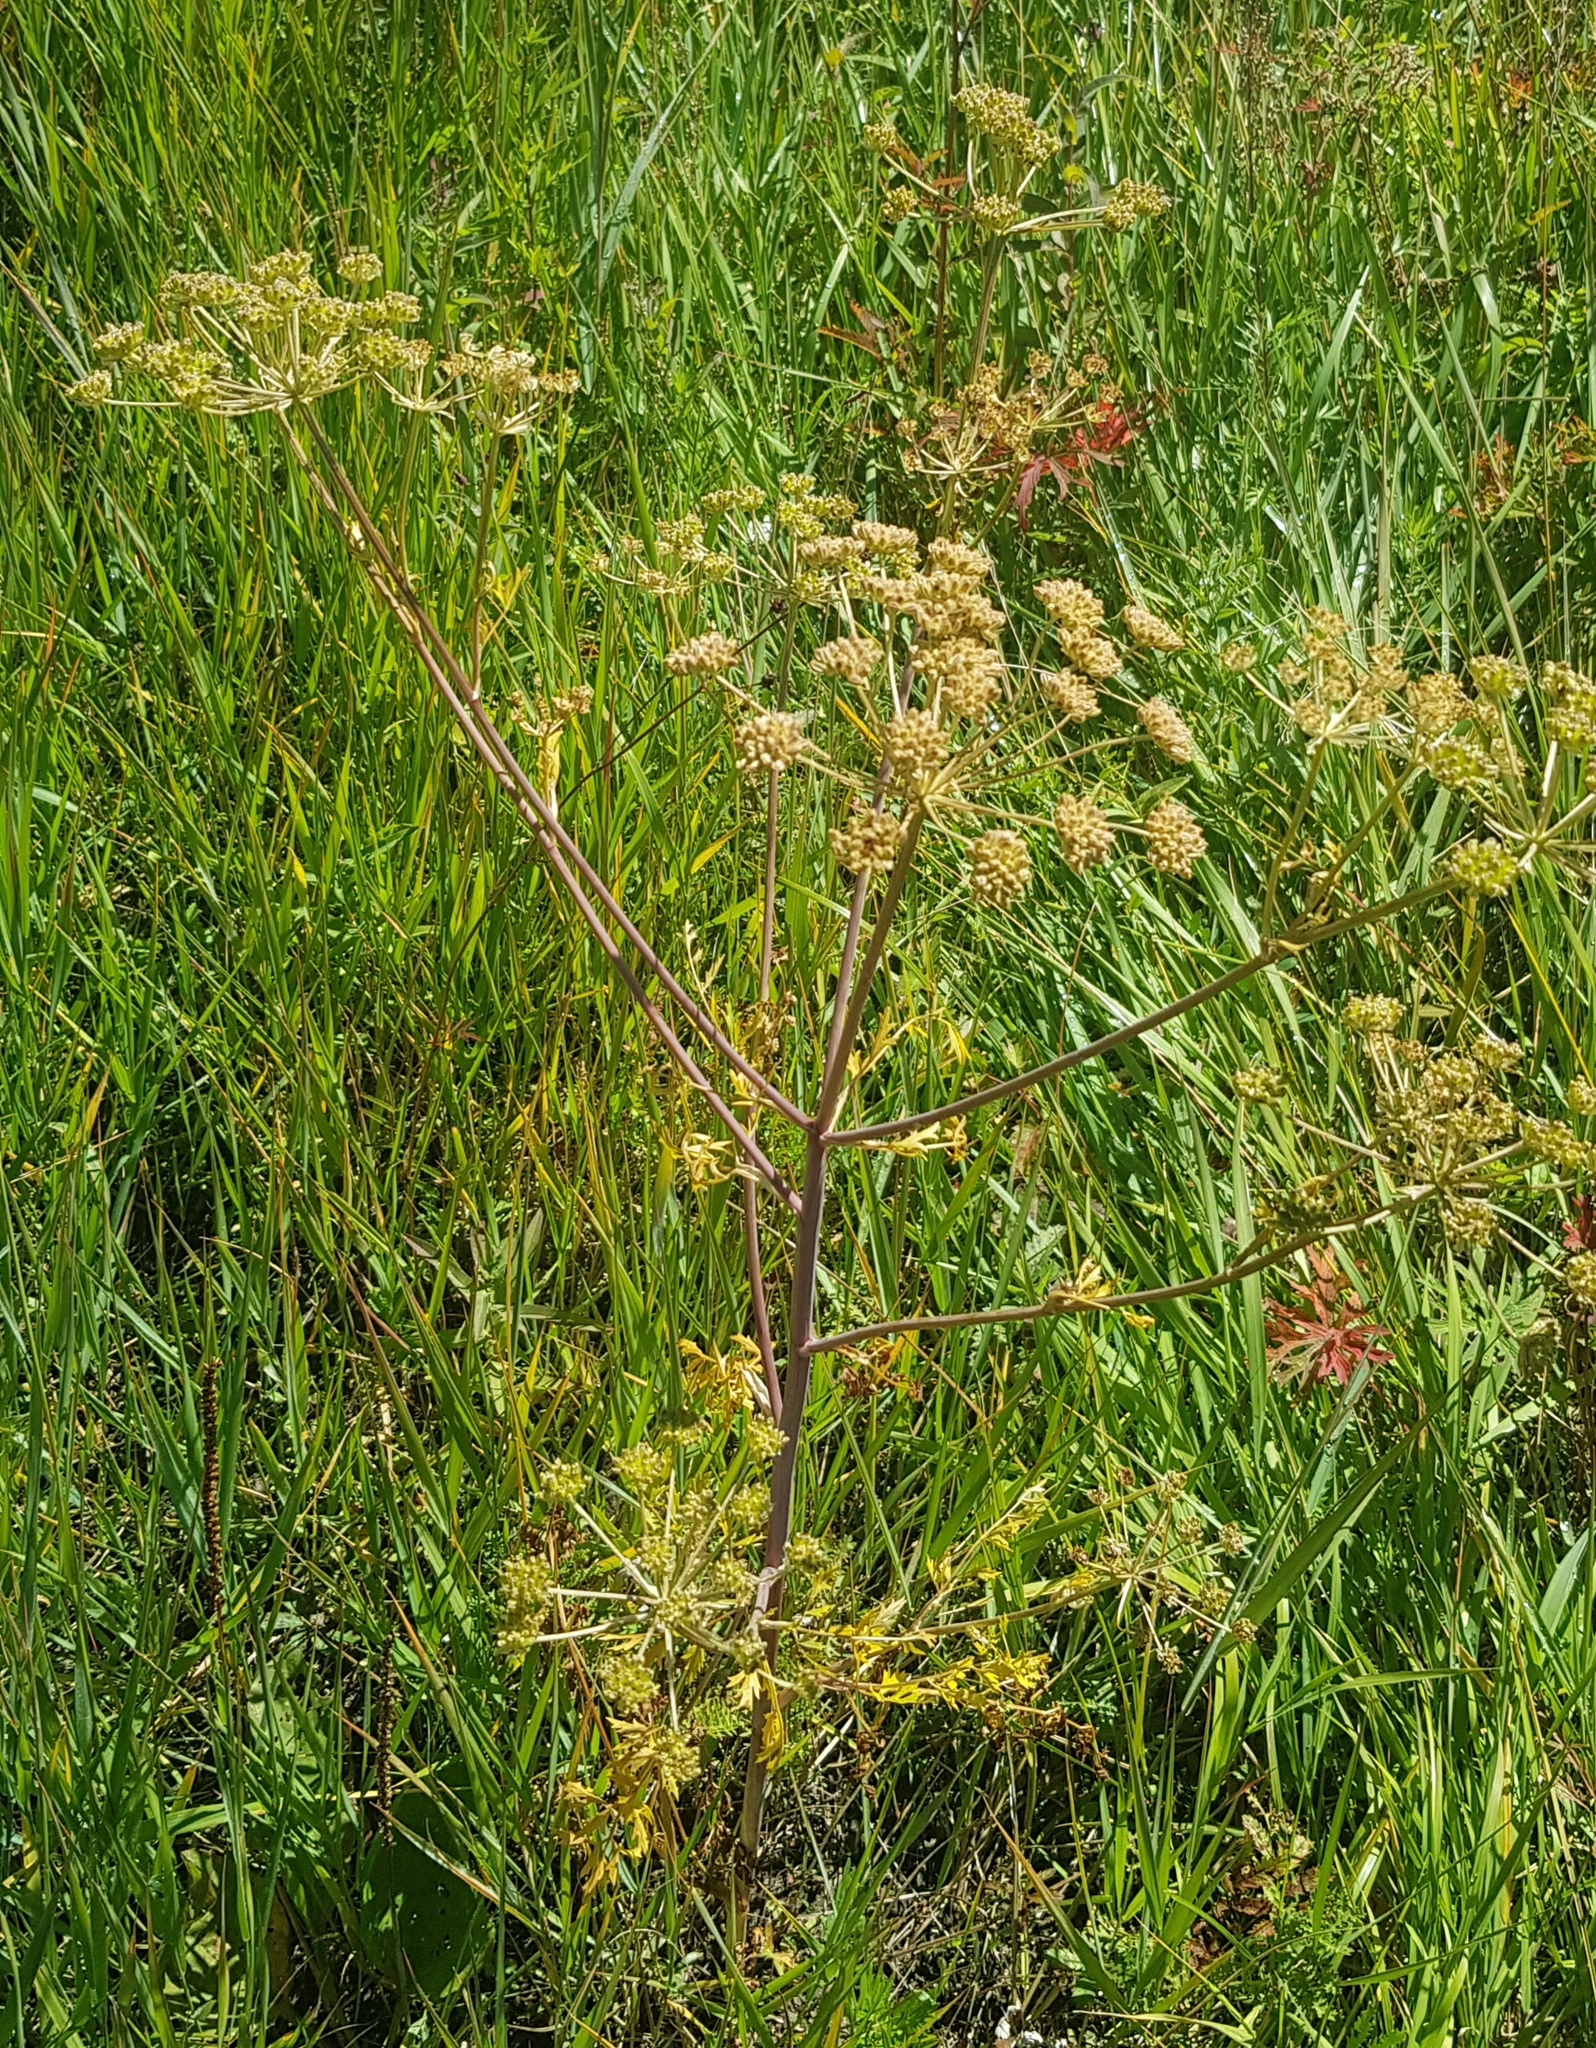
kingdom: Plantae
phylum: Tracheophyta
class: Magnoliopsida
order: Apiales
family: Apiaceae
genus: Cicuta
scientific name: Cicuta virosa
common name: Cowbane
